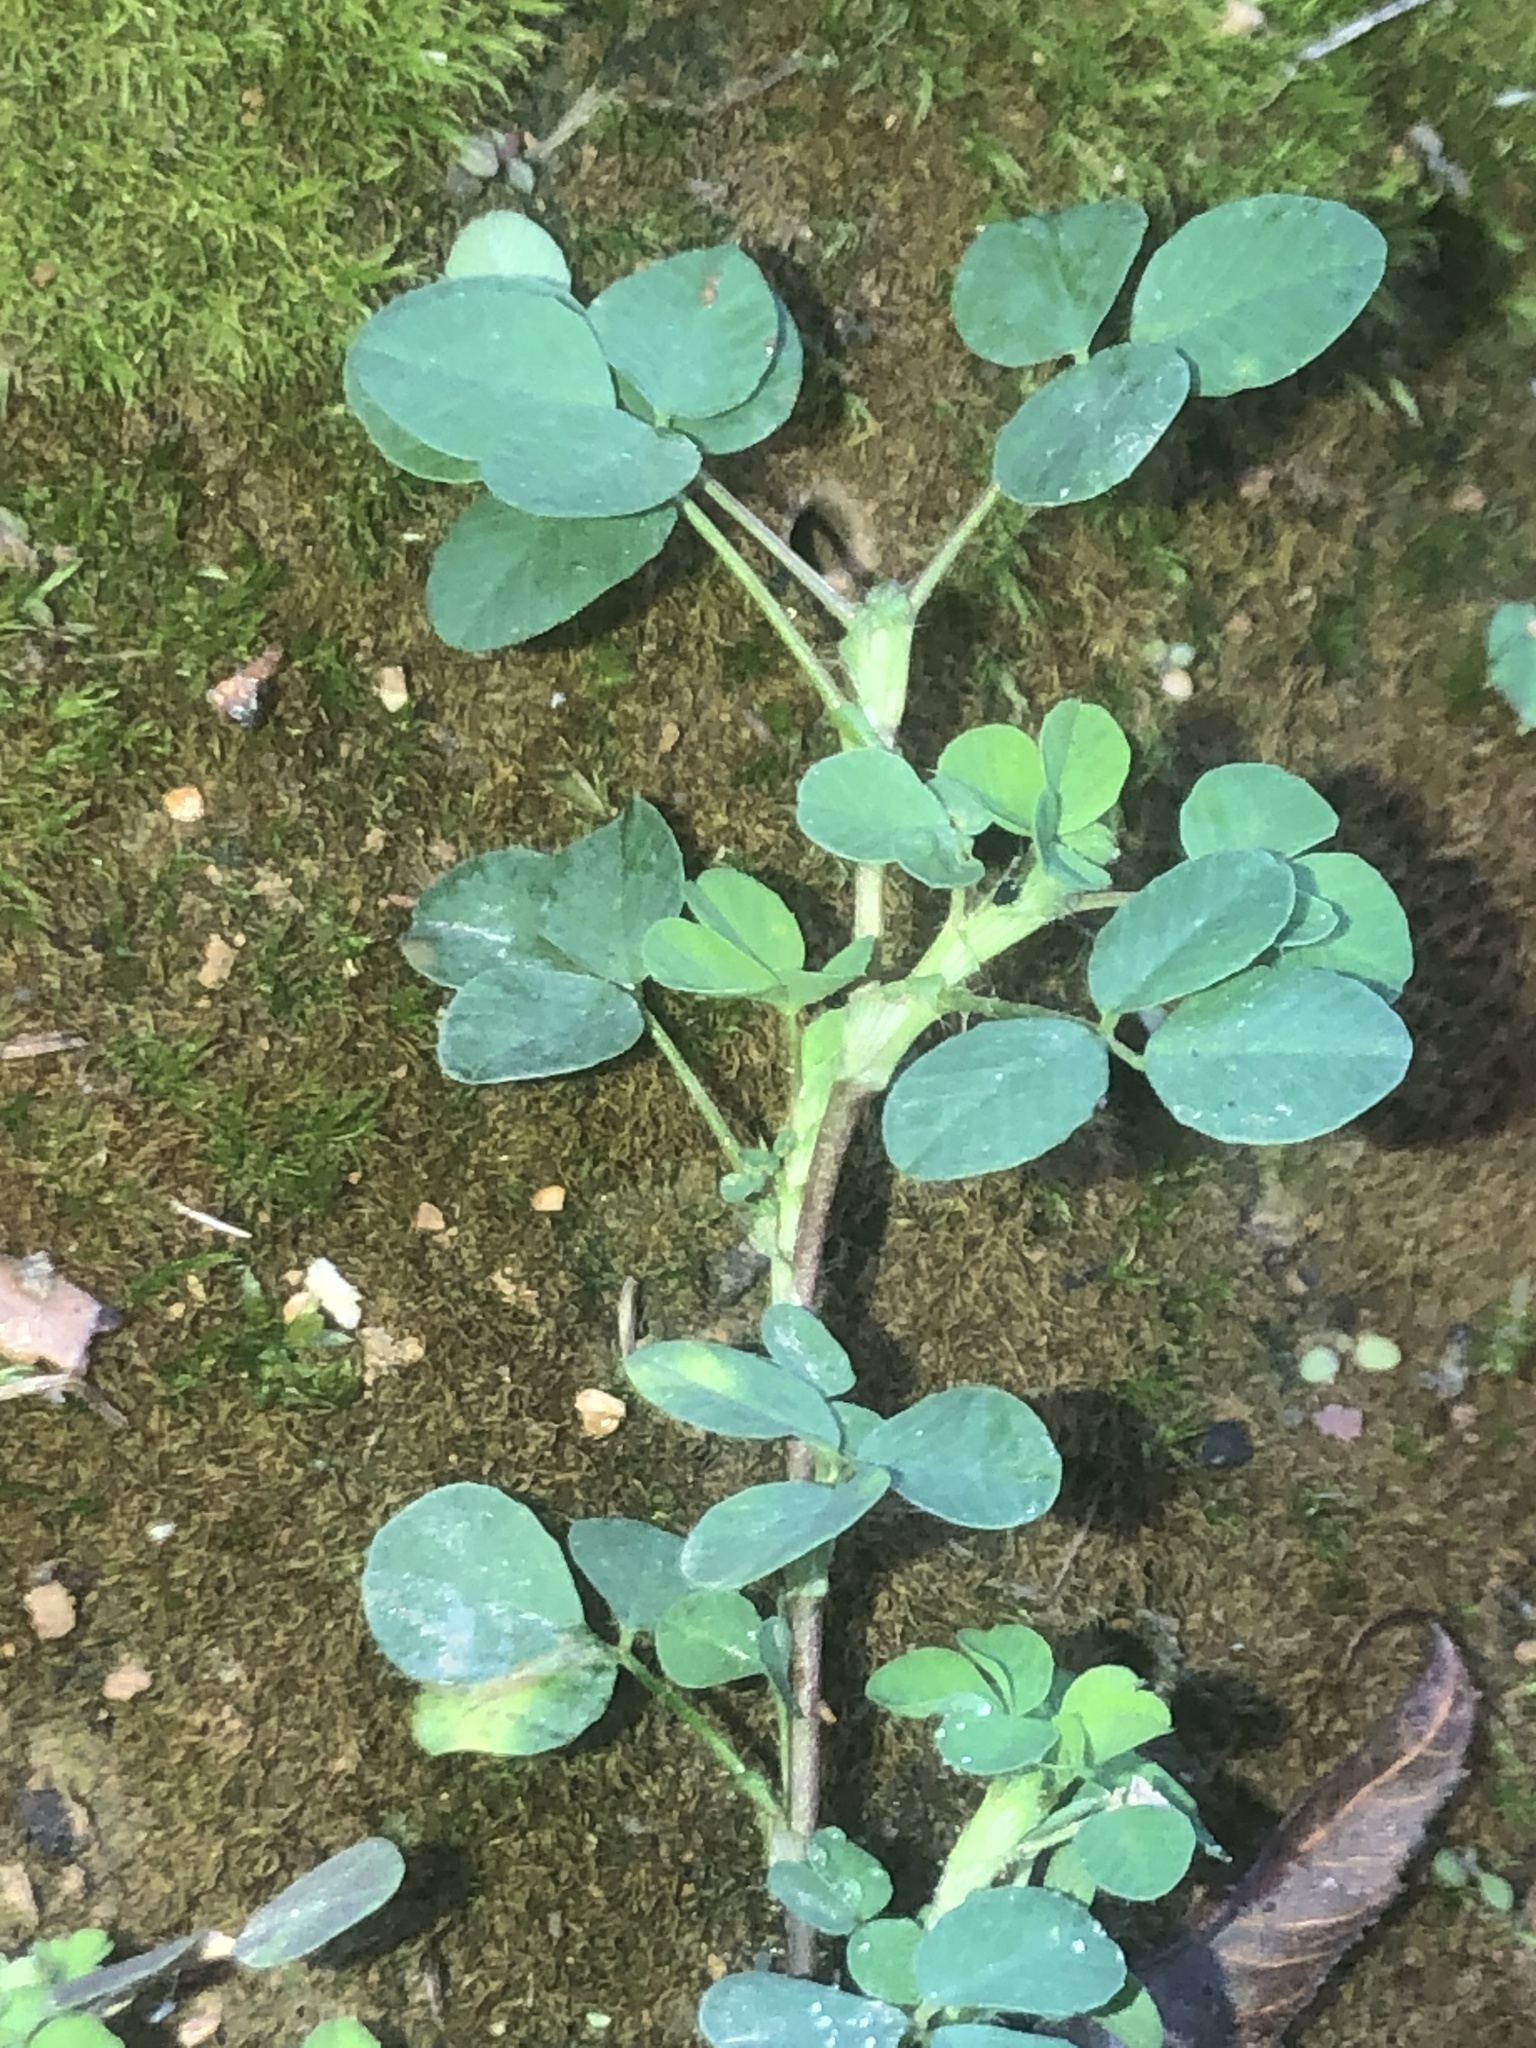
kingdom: Plantae
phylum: Tracheophyta
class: Magnoliopsida
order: Fabales
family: Fabaceae
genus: Medicago
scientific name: Medicago lupulina
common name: Black medick
